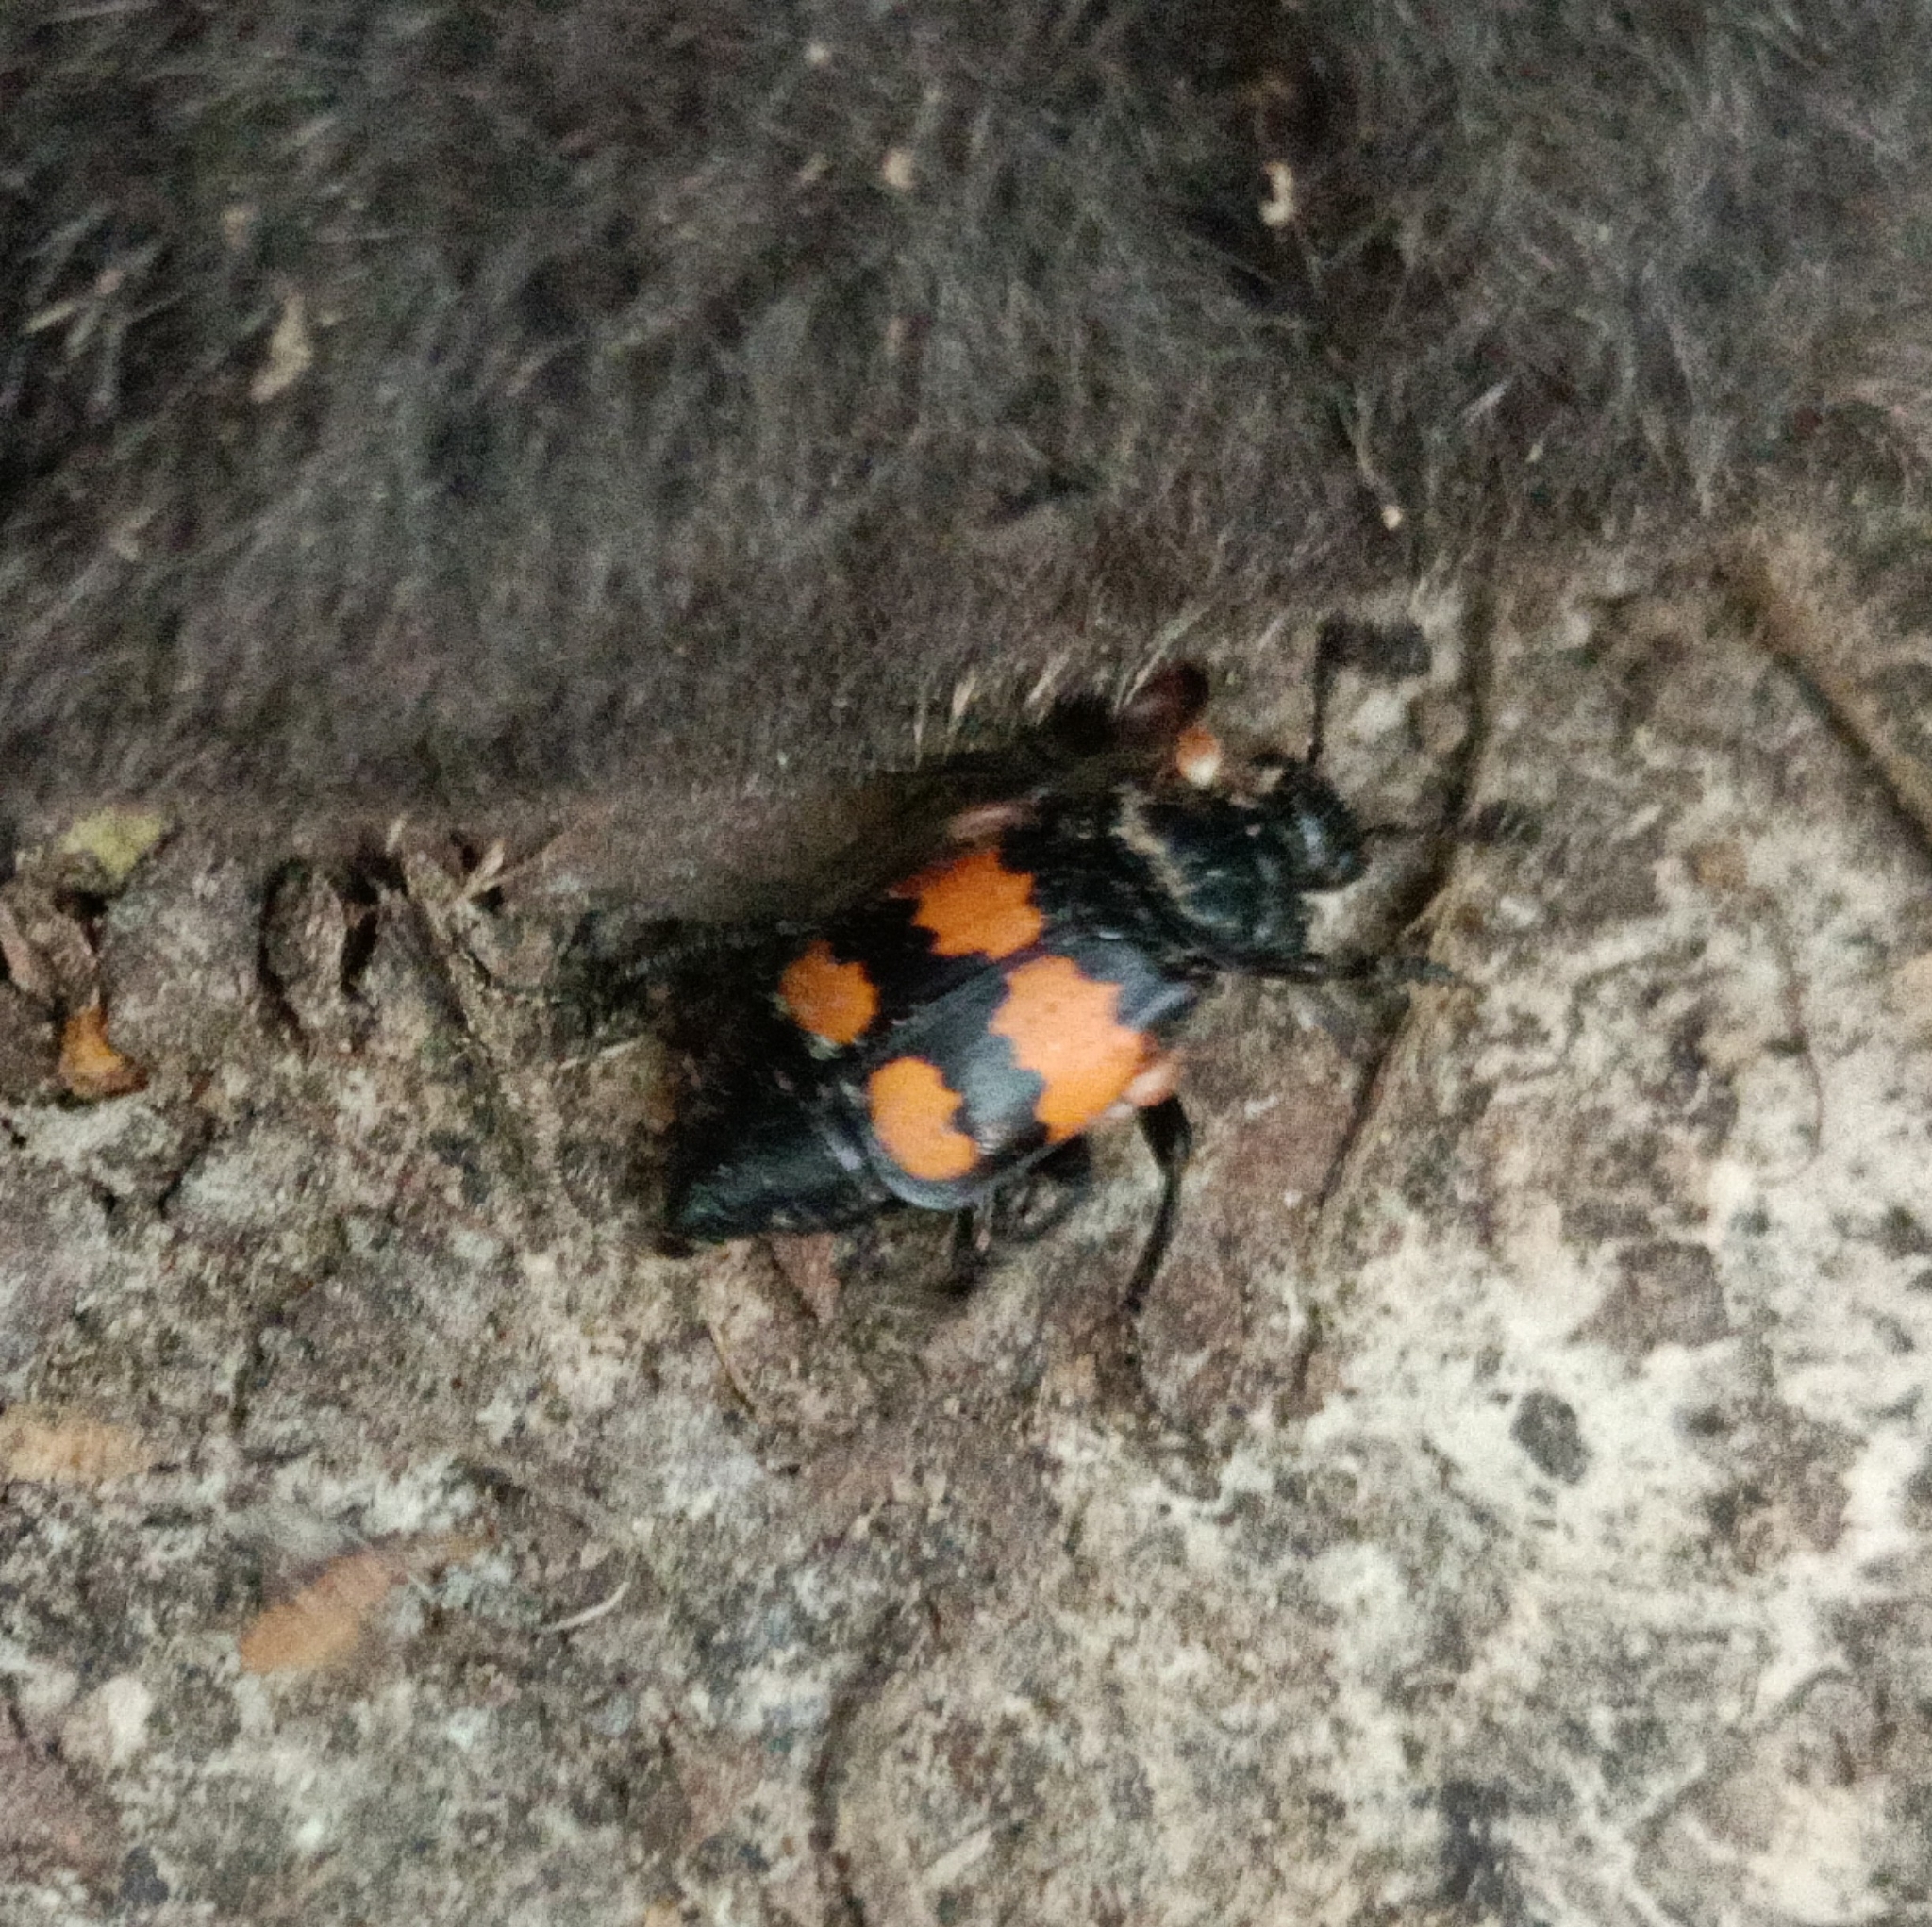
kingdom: Animalia
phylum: Arthropoda
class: Insecta
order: Coleoptera
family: Staphylinidae
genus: Nicrophorus
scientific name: Nicrophorus vespilloides
